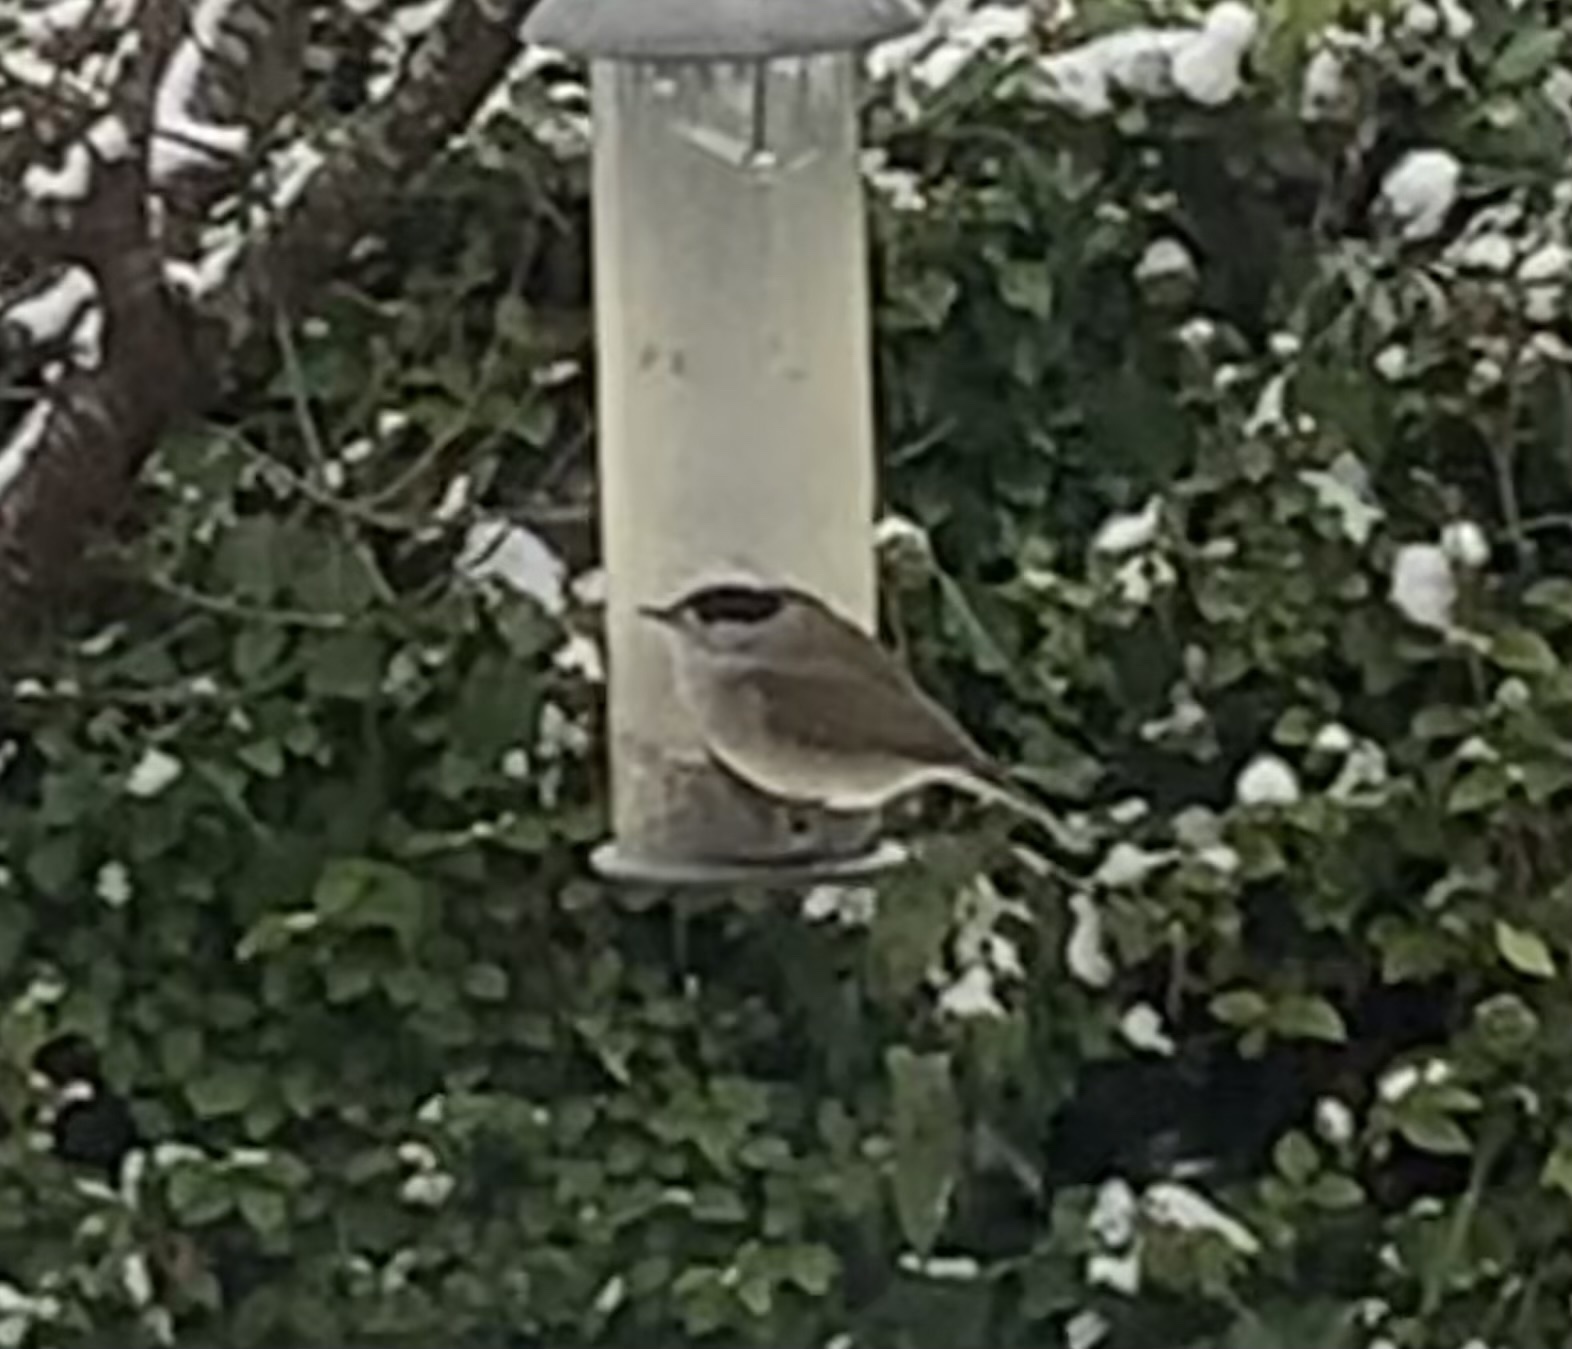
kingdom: Animalia
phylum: Chordata
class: Aves
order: Passeriformes
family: Sylviidae
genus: Sylvia
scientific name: Sylvia atricapilla
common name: Eurasian blackcap
